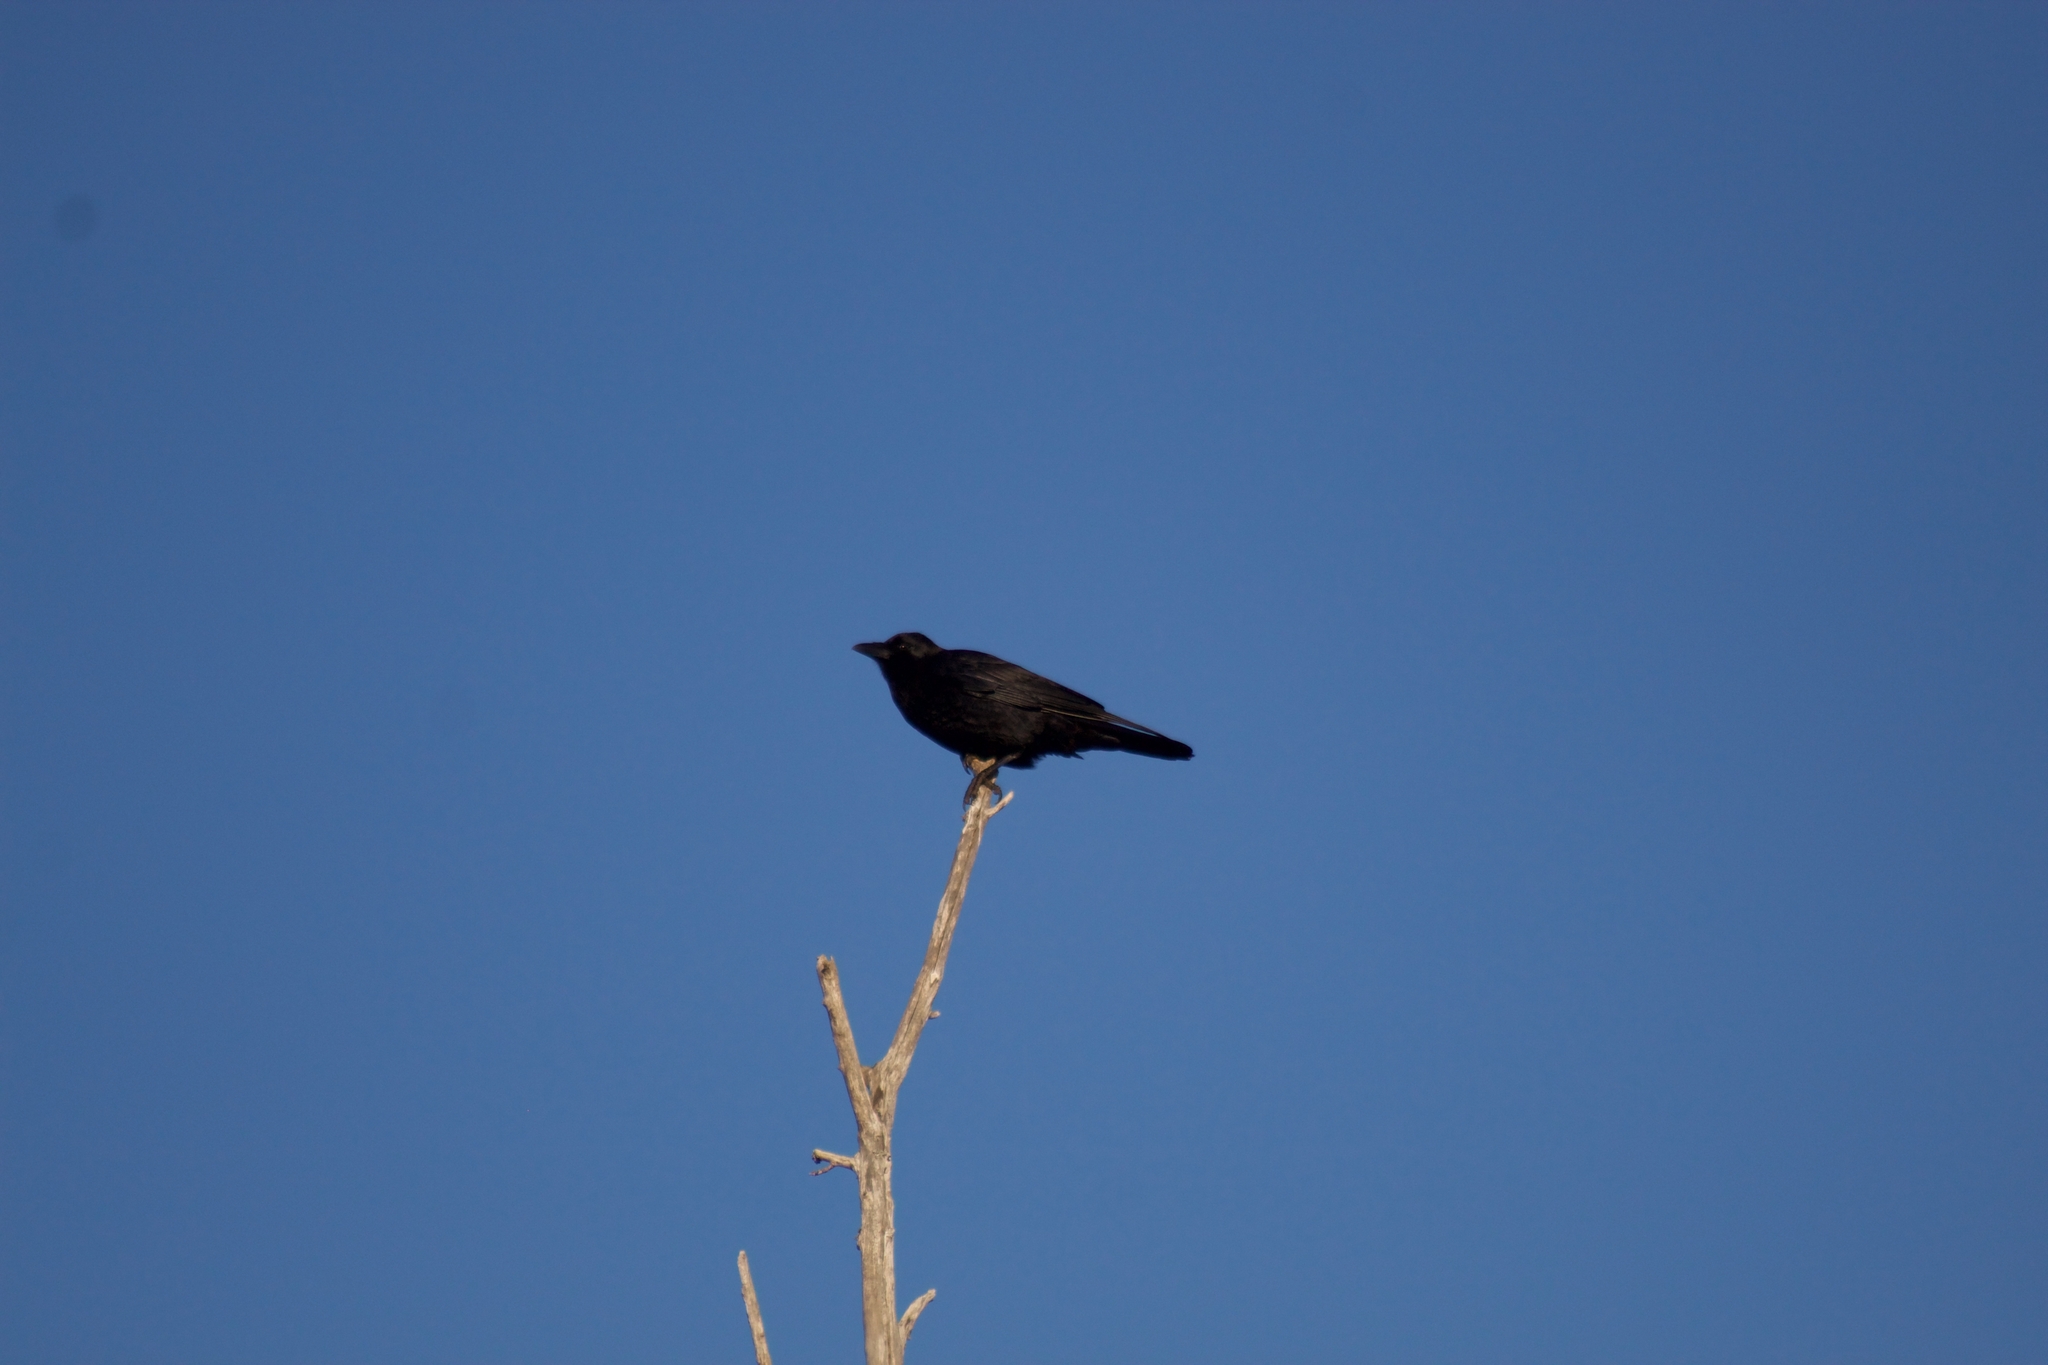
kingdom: Animalia
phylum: Chordata
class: Aves
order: Passeriformes
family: Corvidae
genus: Corvus
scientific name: Corvus brachyrhynchos
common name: American crow
